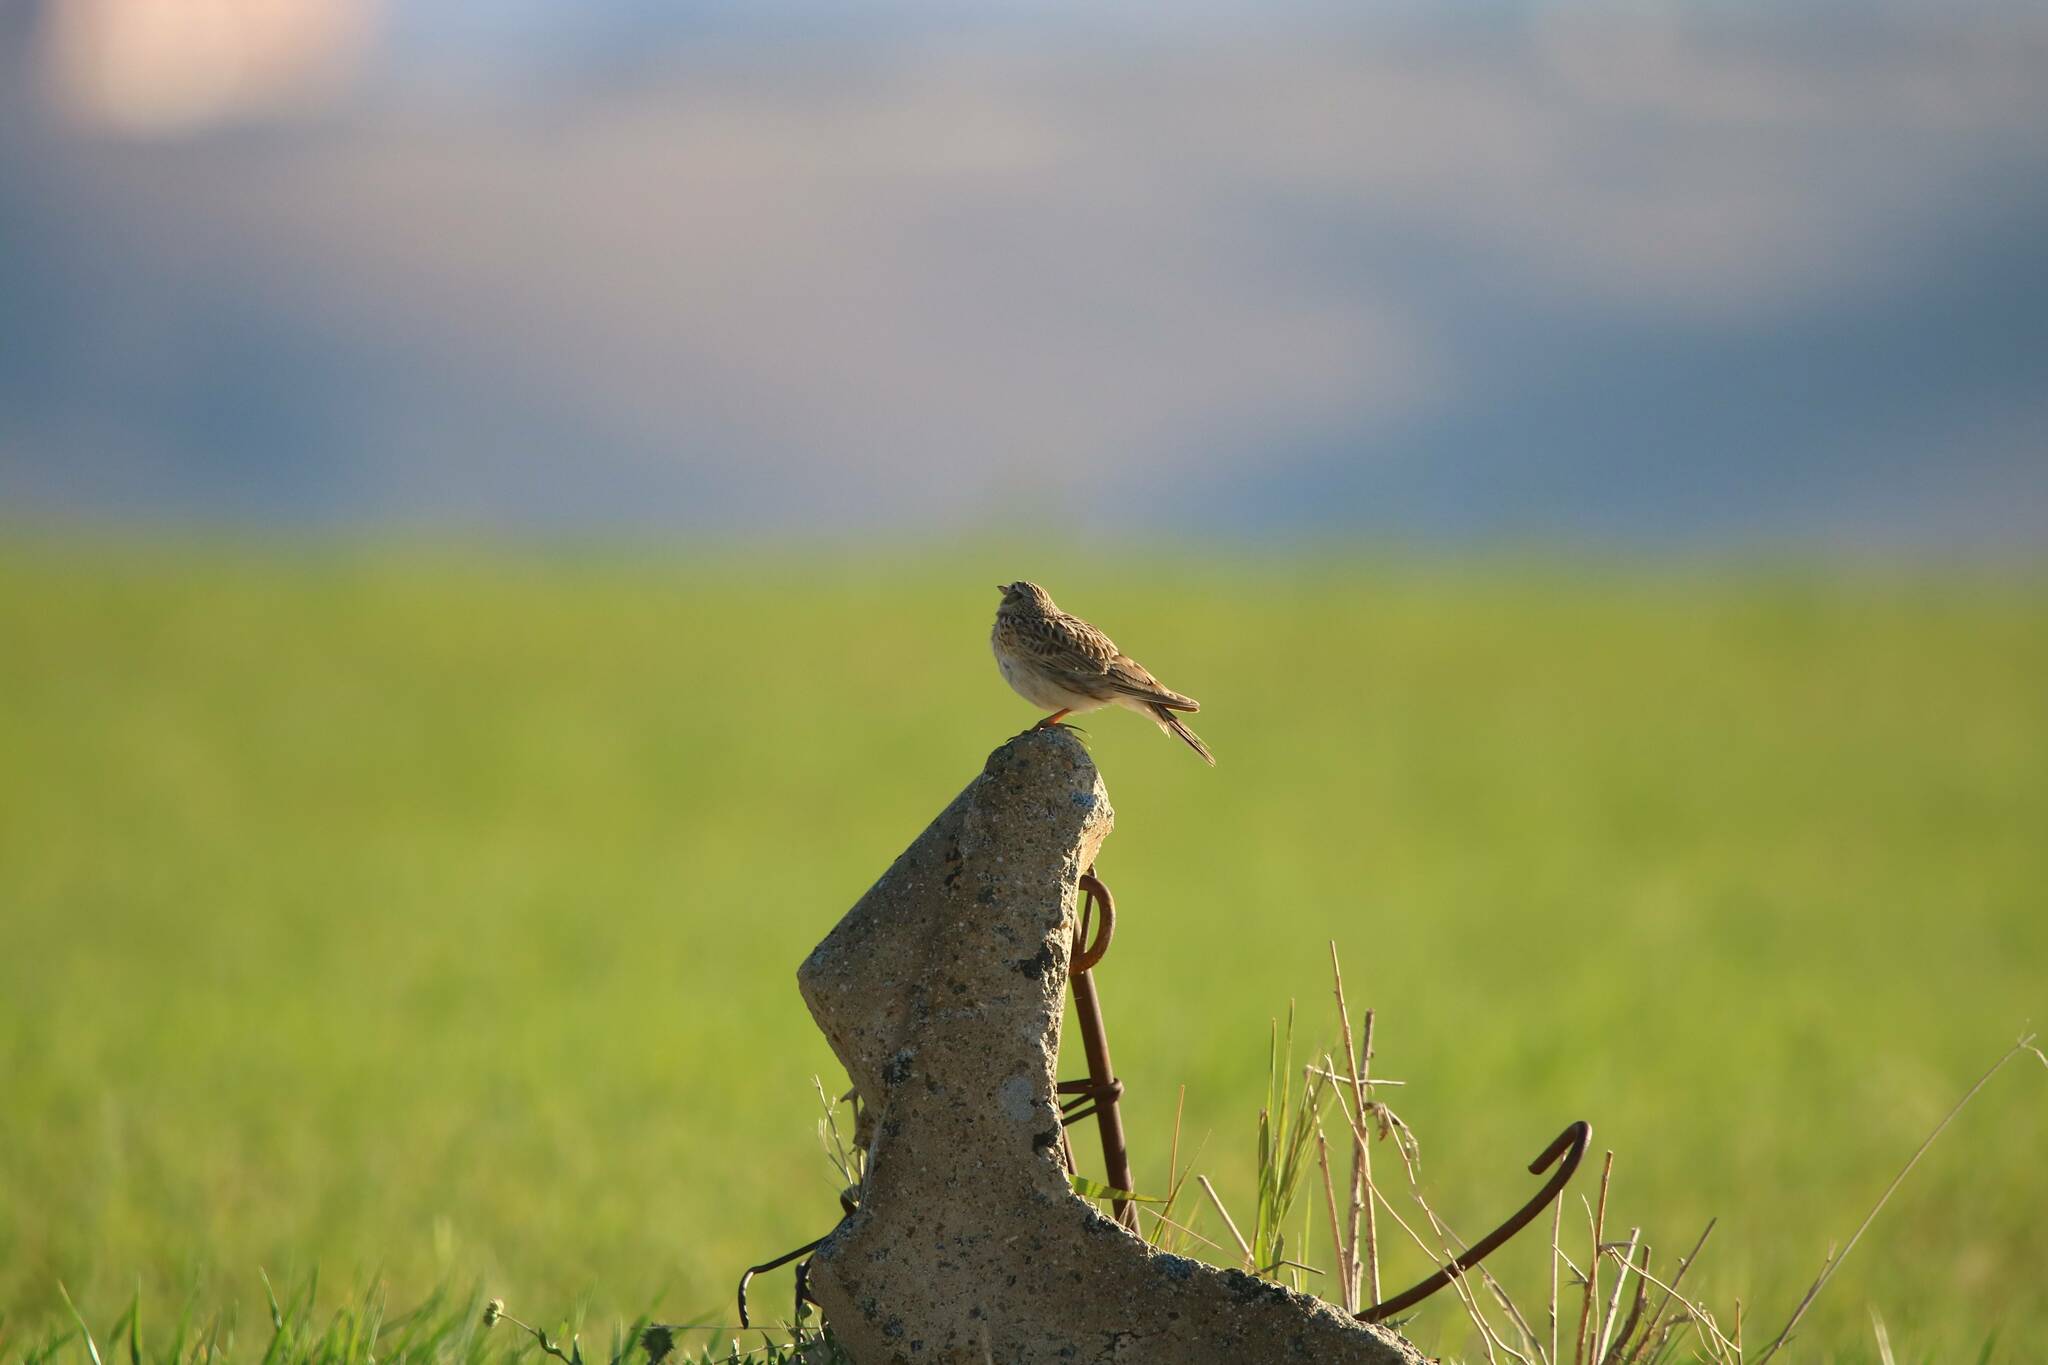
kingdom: Animalia
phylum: Chordata
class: Aves
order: Passeriformes
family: Alaudidae
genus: Alauda
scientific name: Alauda arvensis
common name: Eurasian skylark
